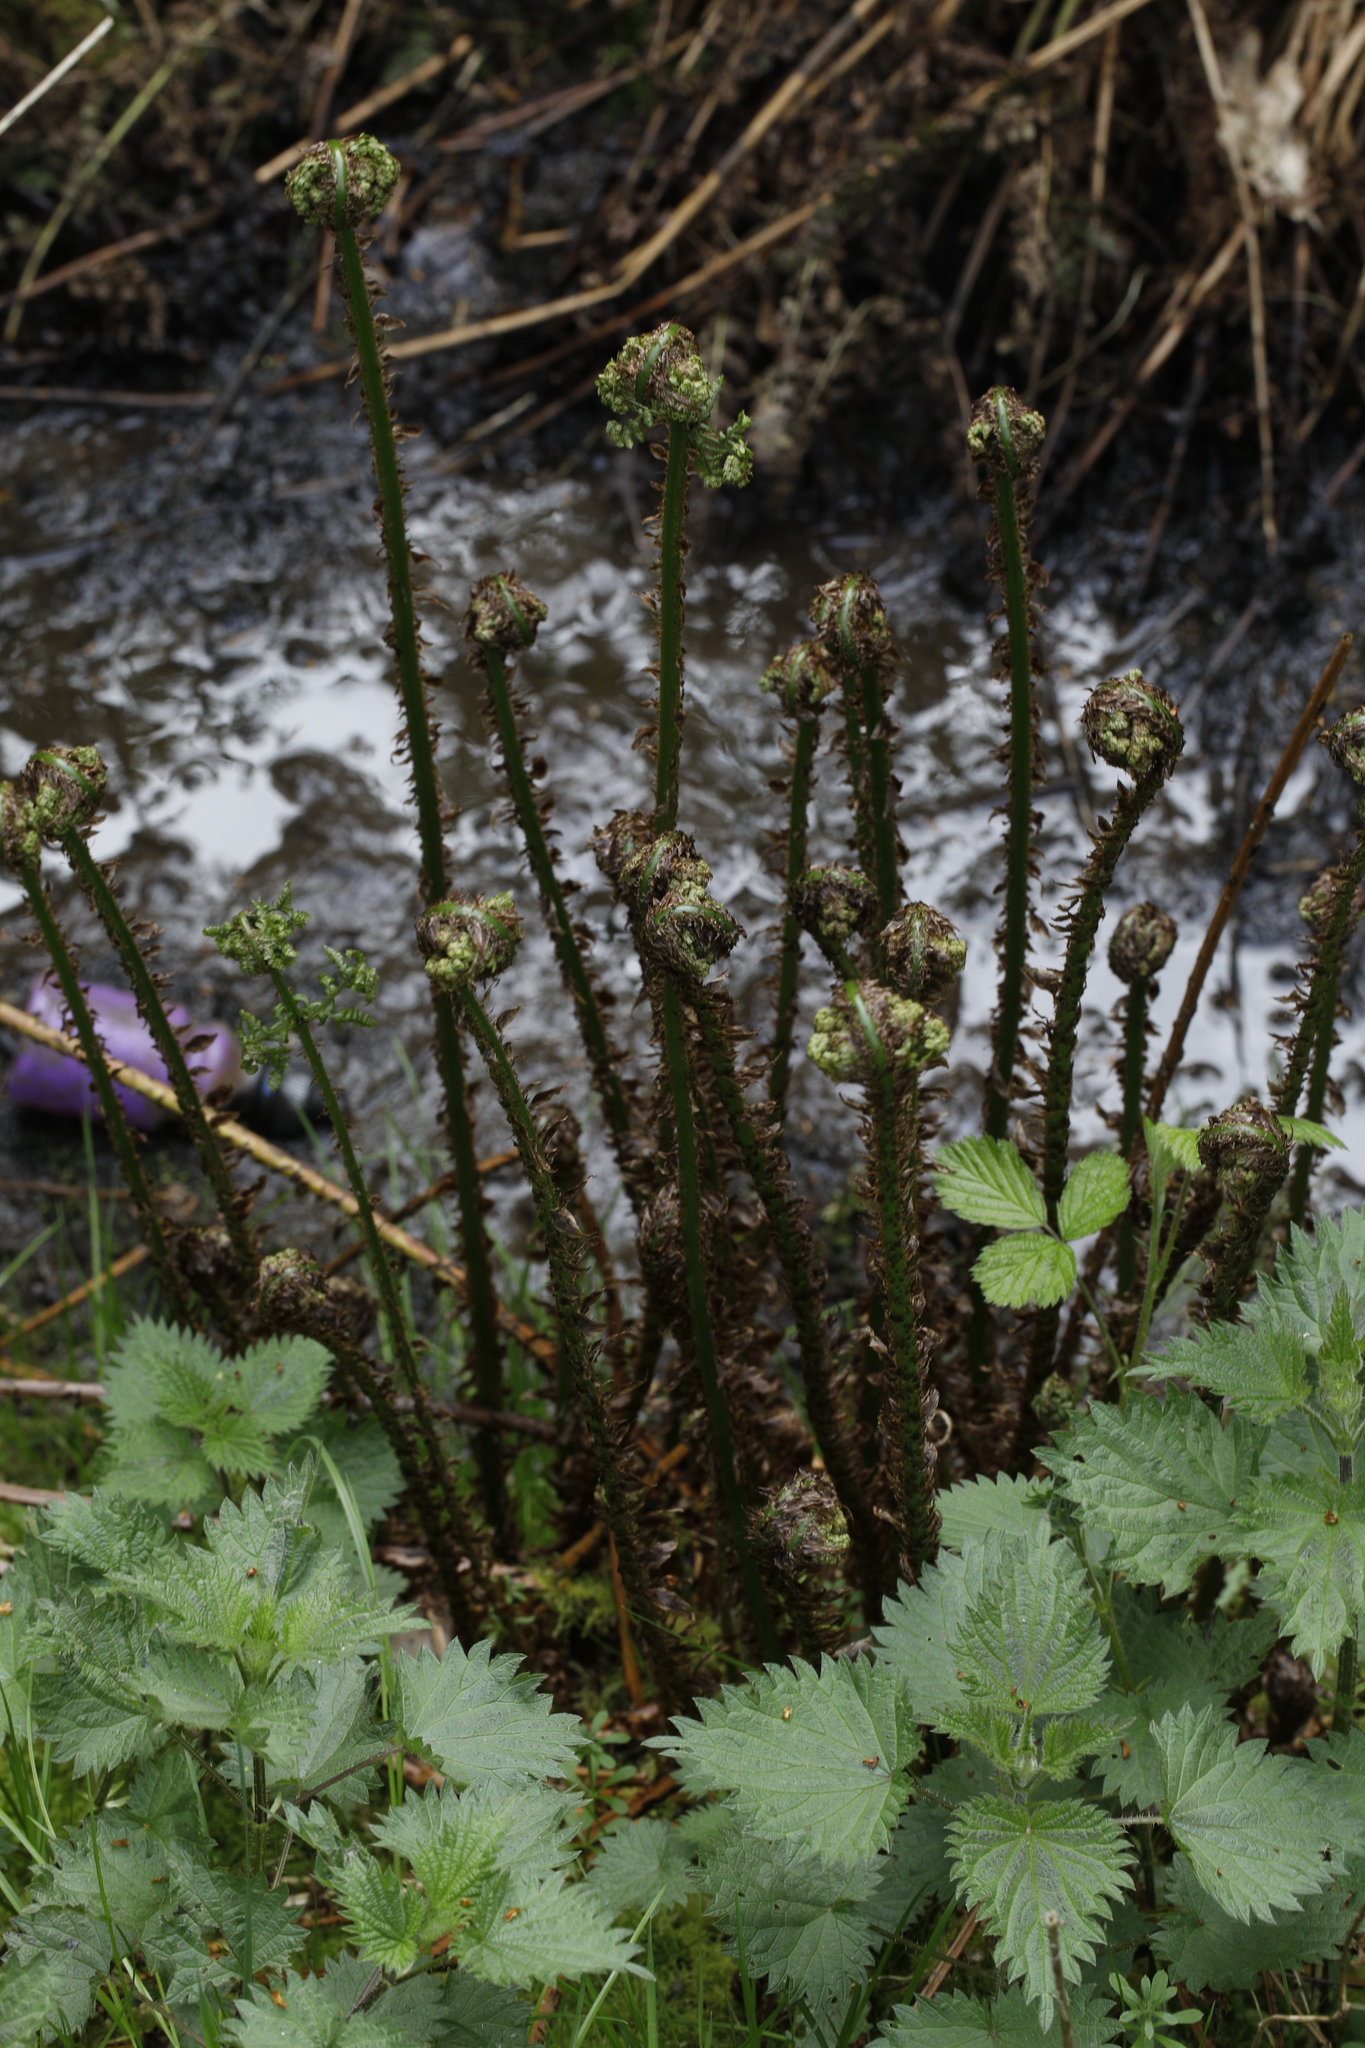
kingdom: Plantae
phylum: Tracheophyta
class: Polypodiopsida
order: Polypodiales
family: Dryopteridaceae
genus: Dryopteris
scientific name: Dryopteris dilatata
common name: Broad buckler-fern
